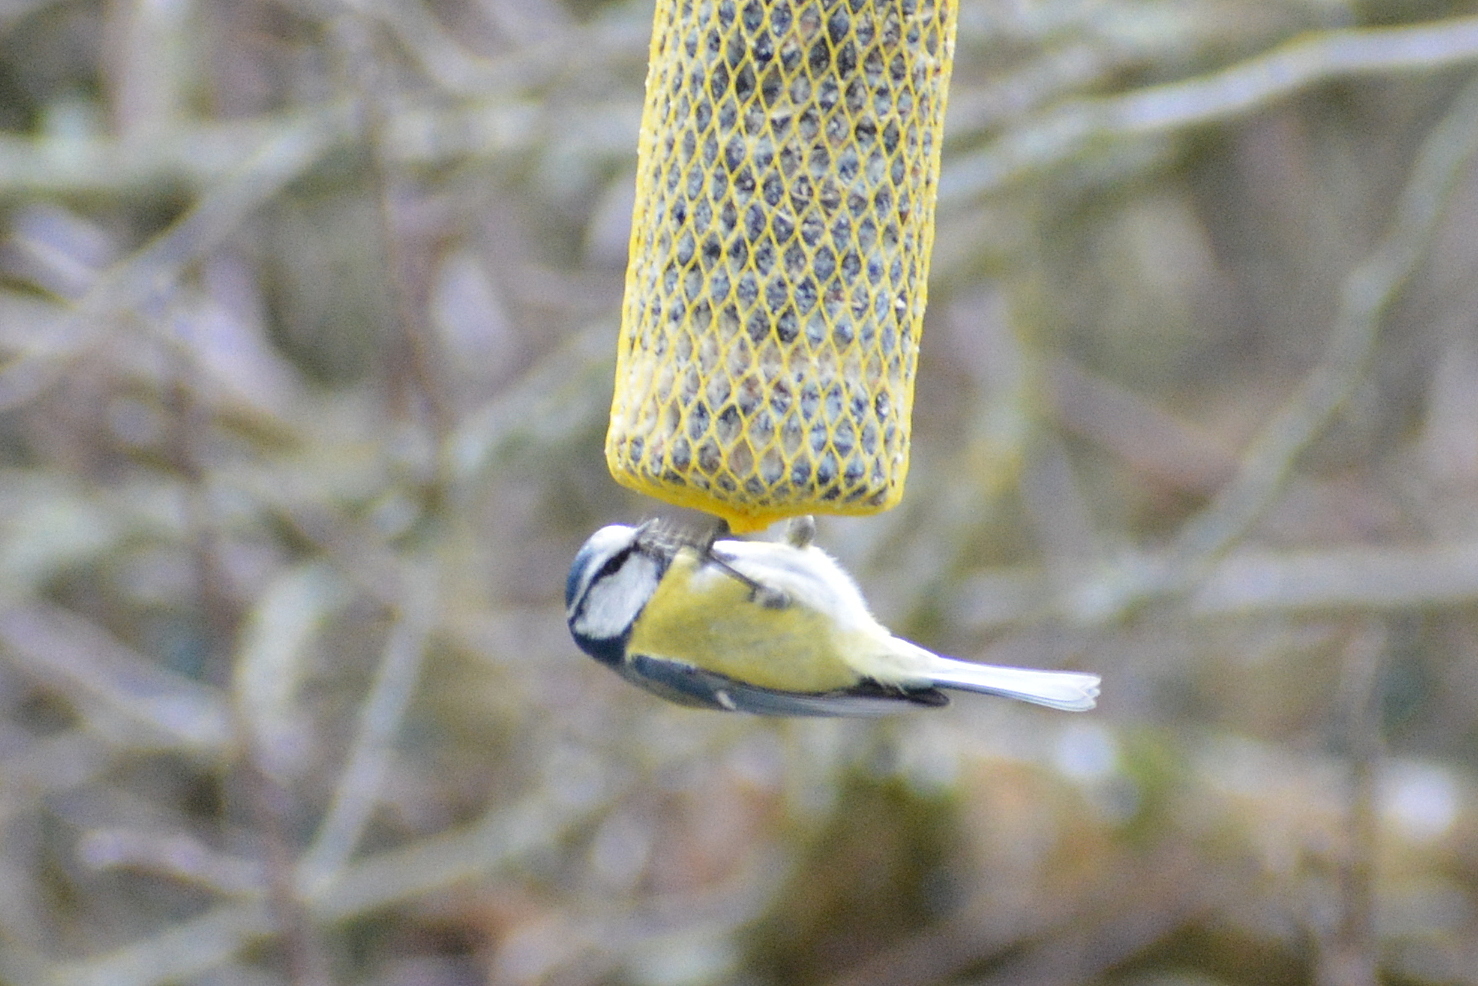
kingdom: Animalia
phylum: Chordata
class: Aves
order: Passeriformes
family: Paridae
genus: Cyanistes
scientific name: Cyanistes caeruleus
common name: Eurasian blue tit
